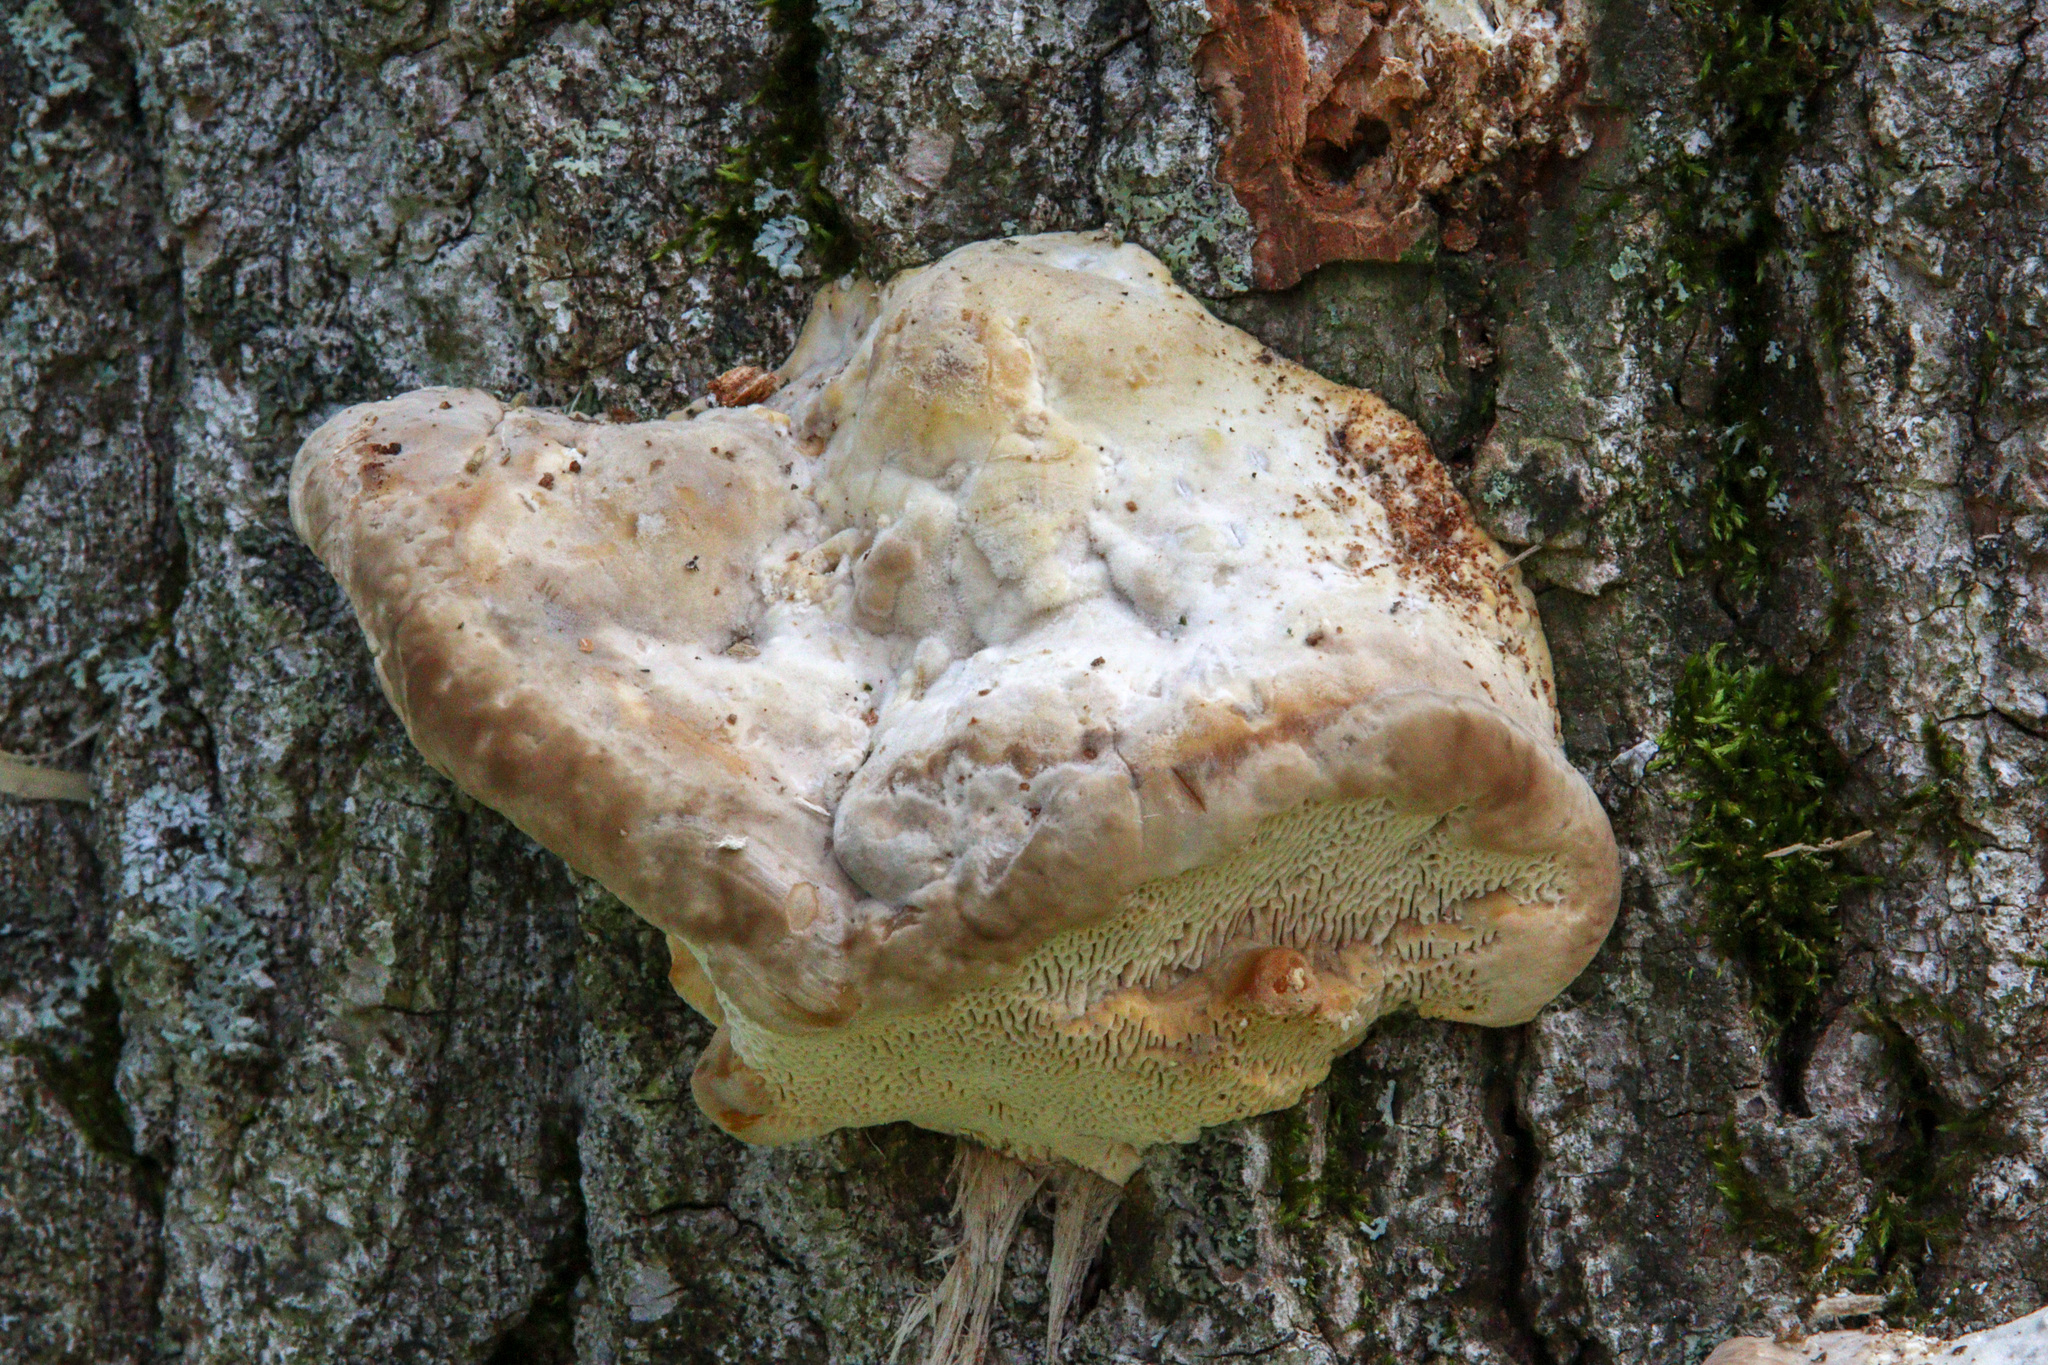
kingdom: Fungi
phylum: Basidiomycota
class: Agaricomycetes
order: Polyporales
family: Polyporaceae
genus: Trametes
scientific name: Trametes gibbosa
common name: Lumpy bracket
